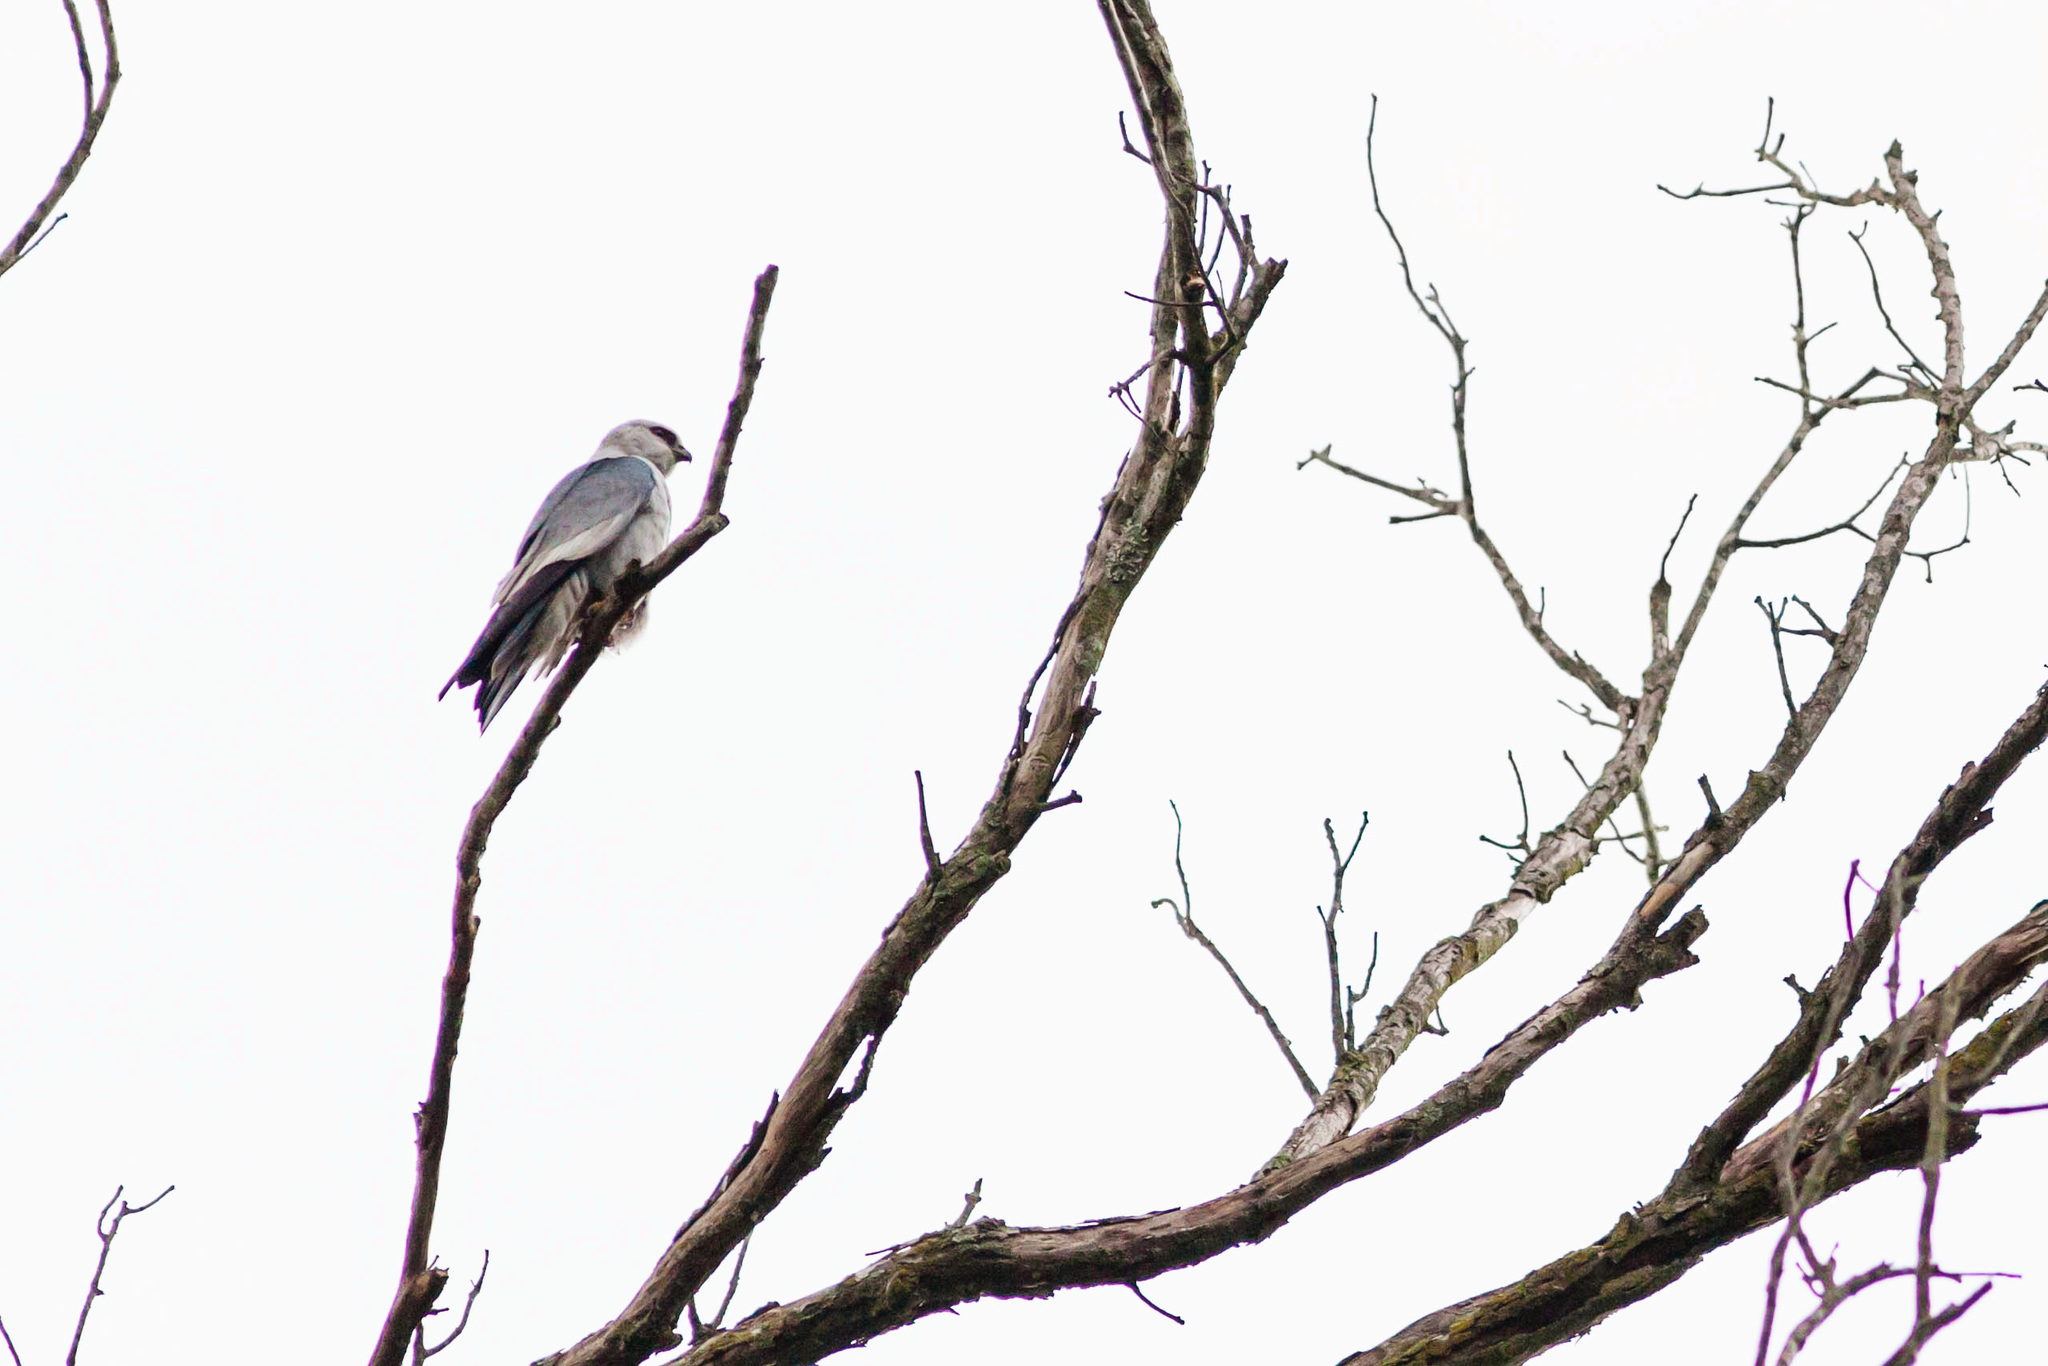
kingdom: Animalia
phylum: Chordata
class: Aves
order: Accipitriformes
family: Accipitridae
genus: Ictinia
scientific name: Ictinia mississippiensis
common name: Mississippi kite
